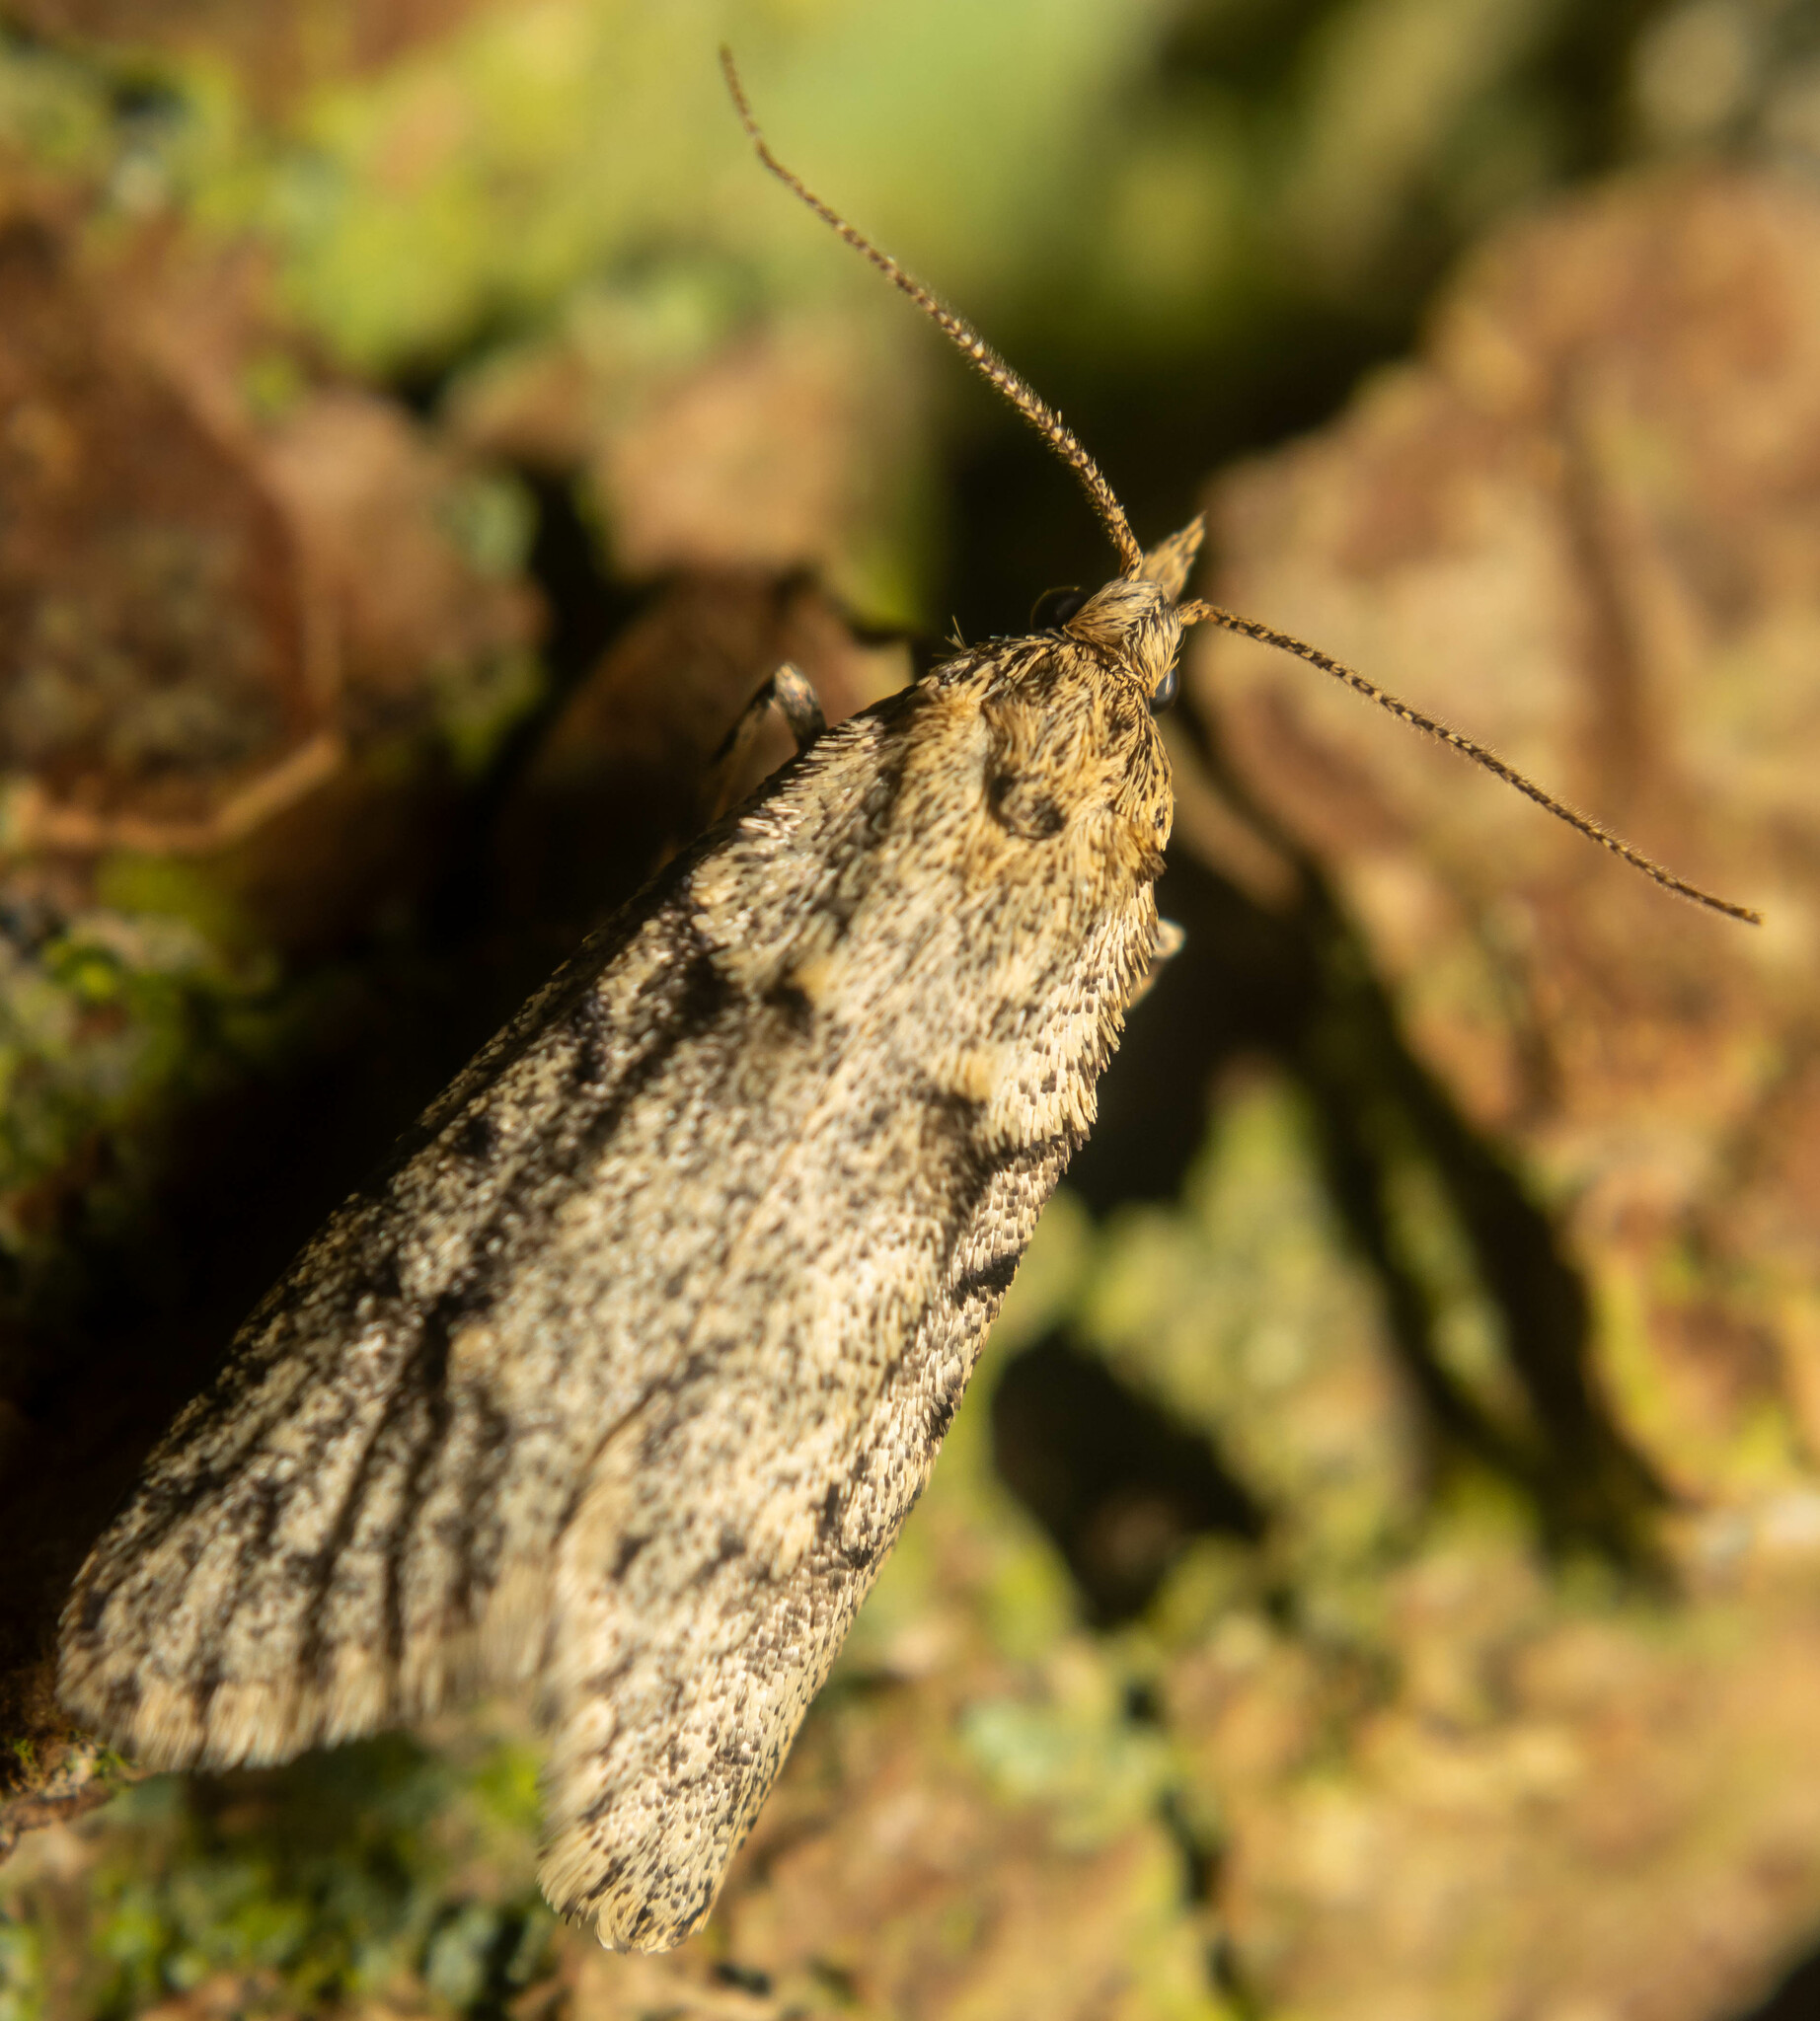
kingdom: Animalia
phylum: Arthropoda
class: Insecta
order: Lepidoptera
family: Lypusidae
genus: Diurnea
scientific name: Diurnea fagella
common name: March tubic
